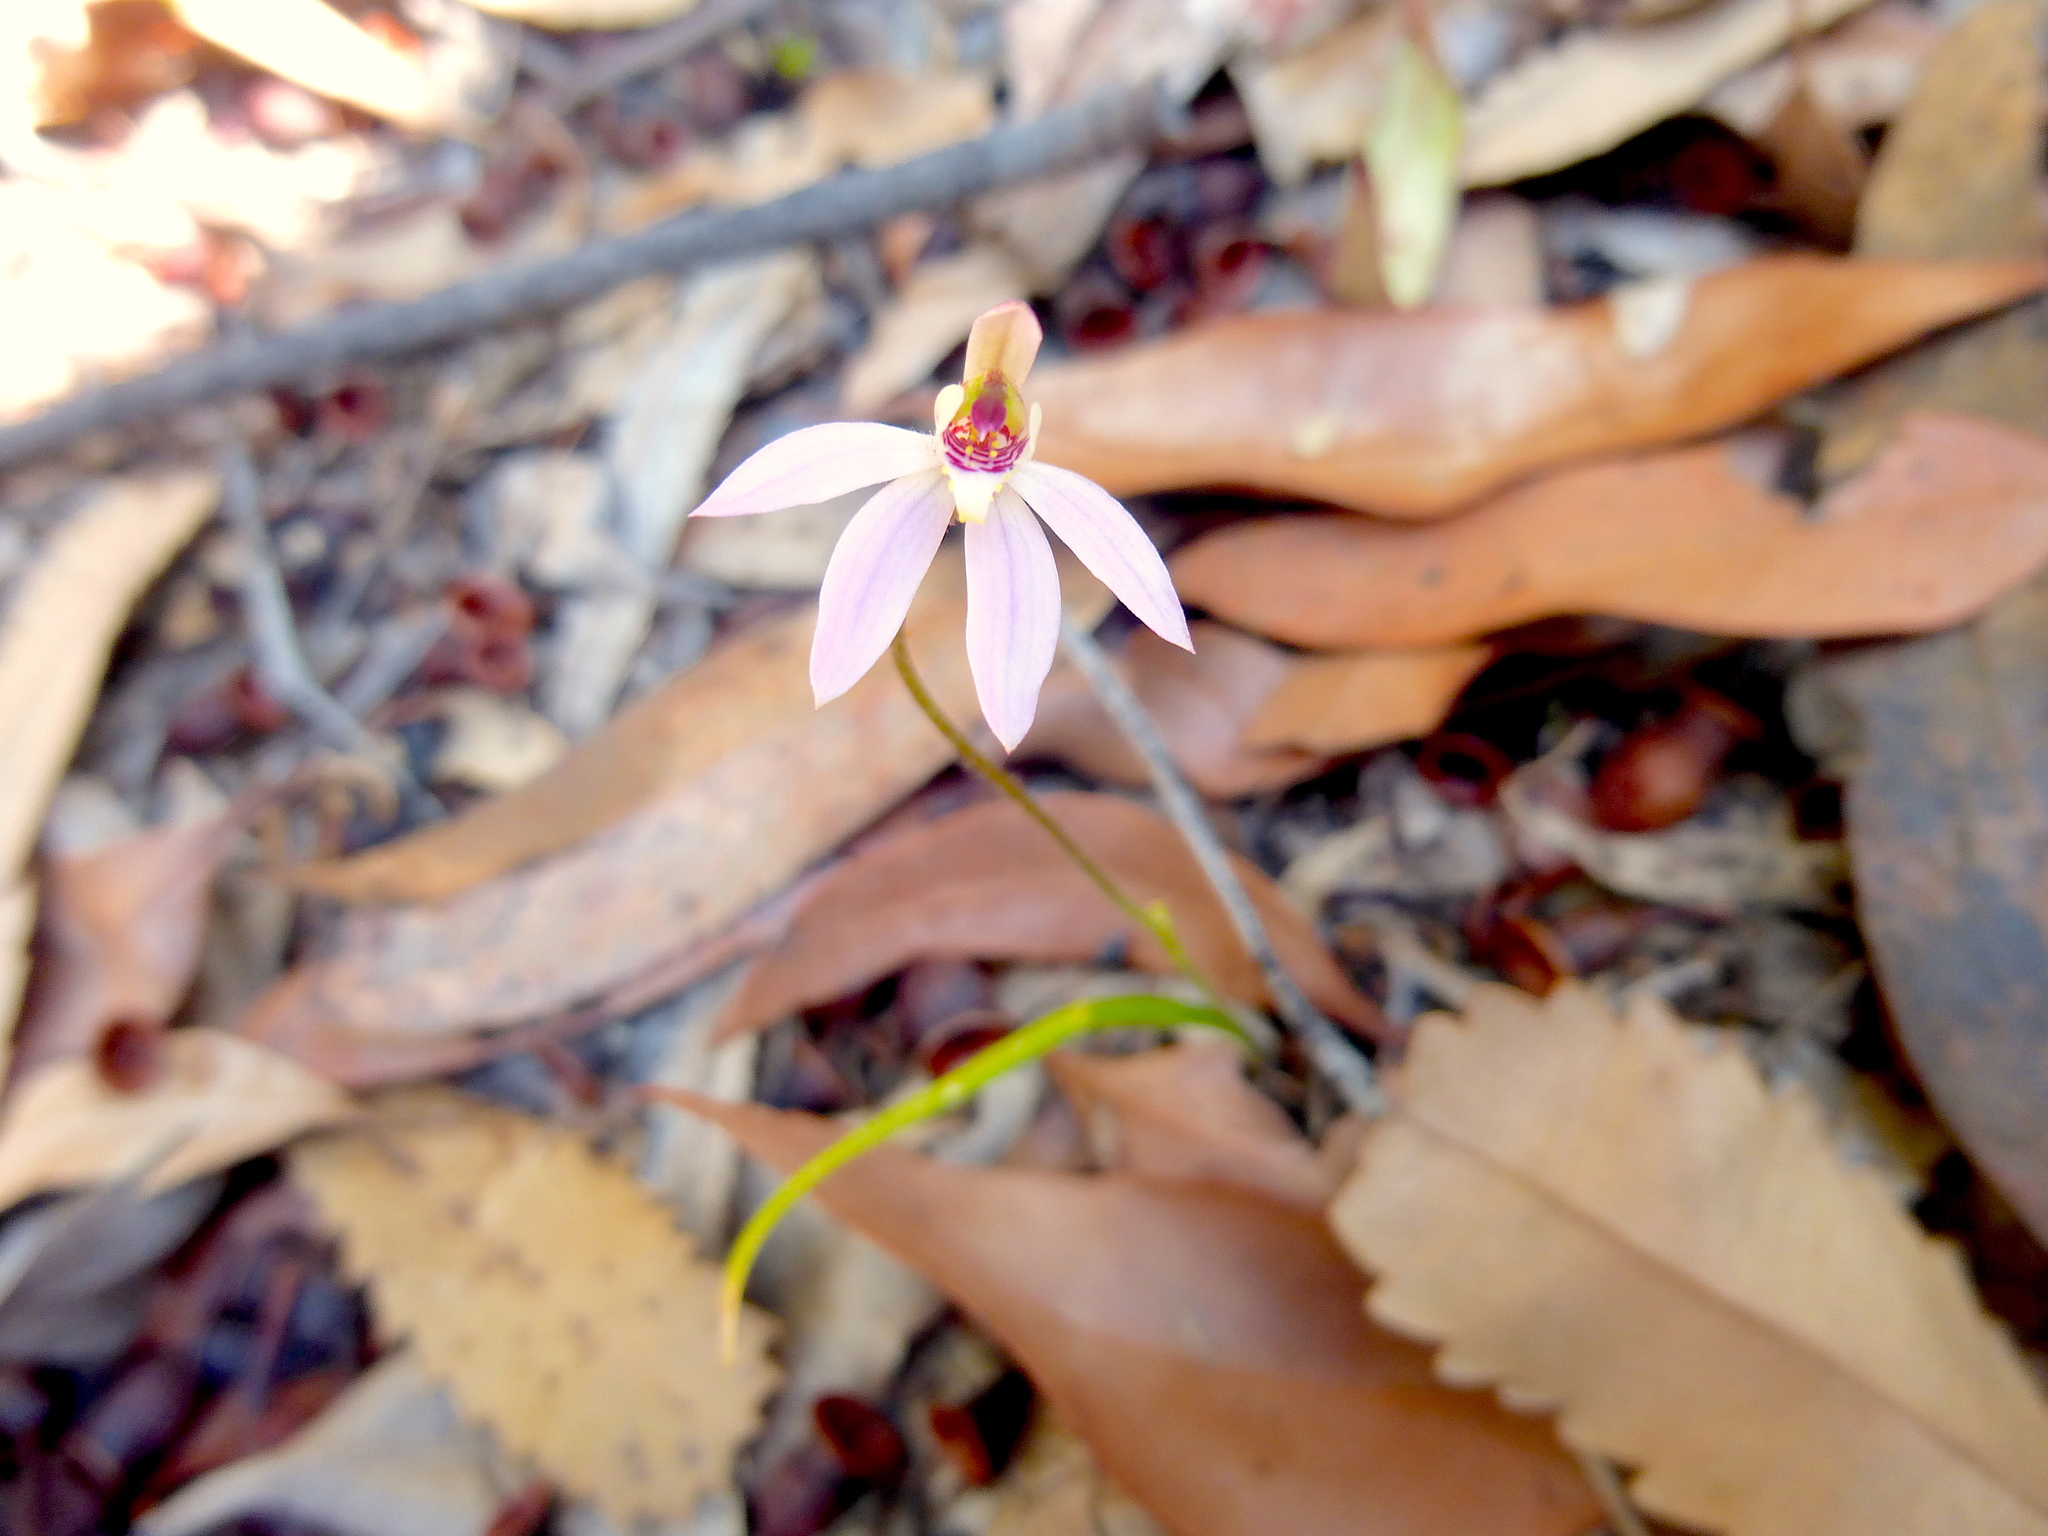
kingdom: Plantae
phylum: Tracheophyta
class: Liliopsida
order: Asparagales
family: Orchidaceae
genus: Caladenia
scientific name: Caladenia carnea
